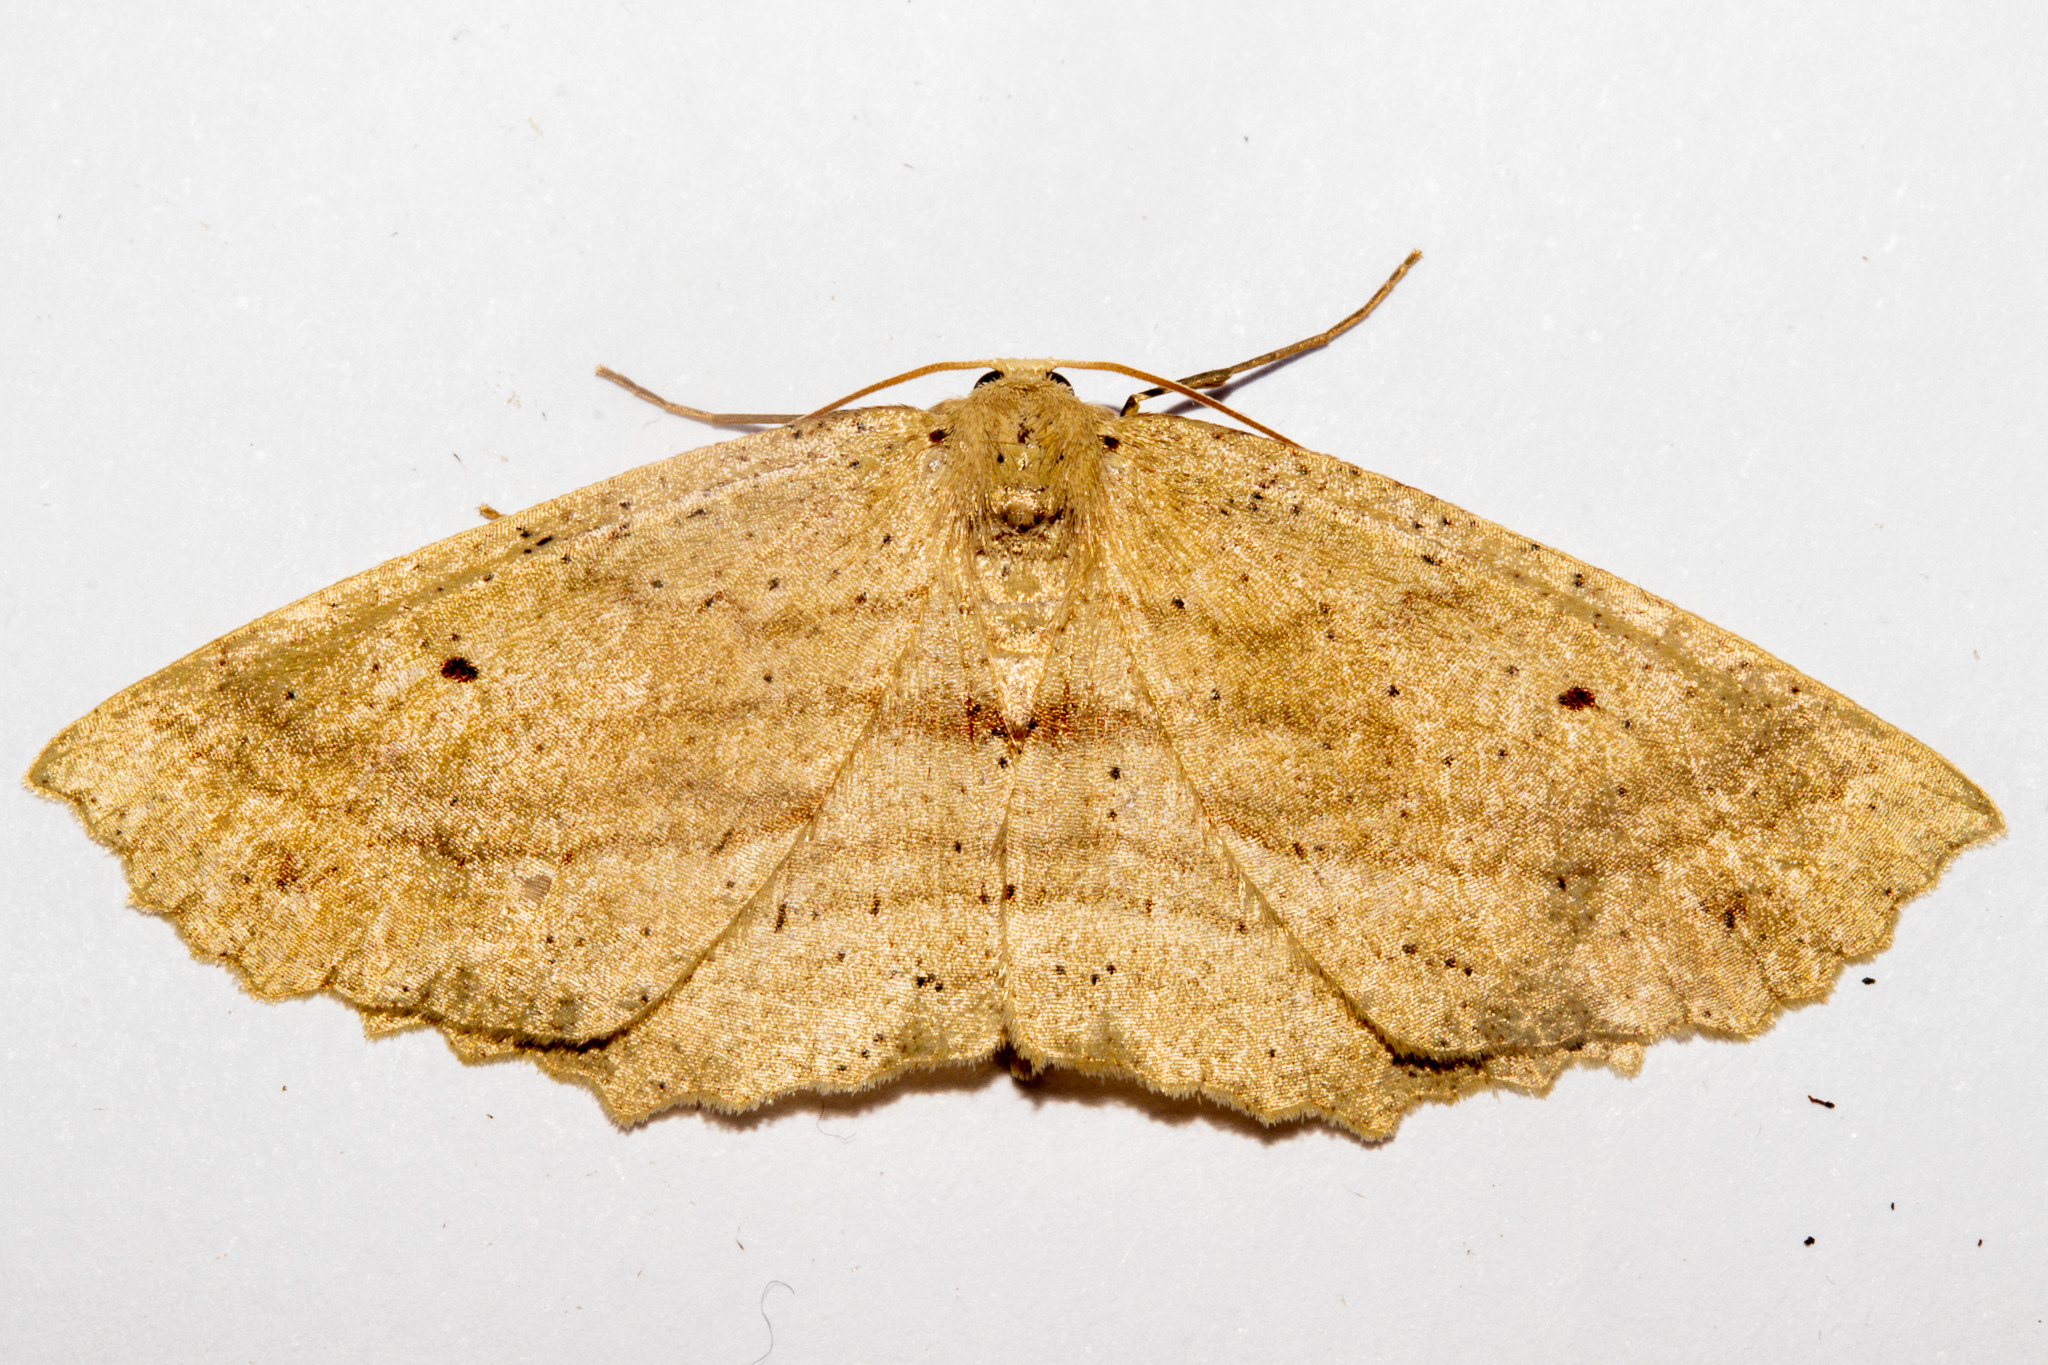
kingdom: Animalia
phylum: Arthropoda
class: Insecta
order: Lepidoptera
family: Geometridae
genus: Xyridacma
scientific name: Xyridacma veronicae
